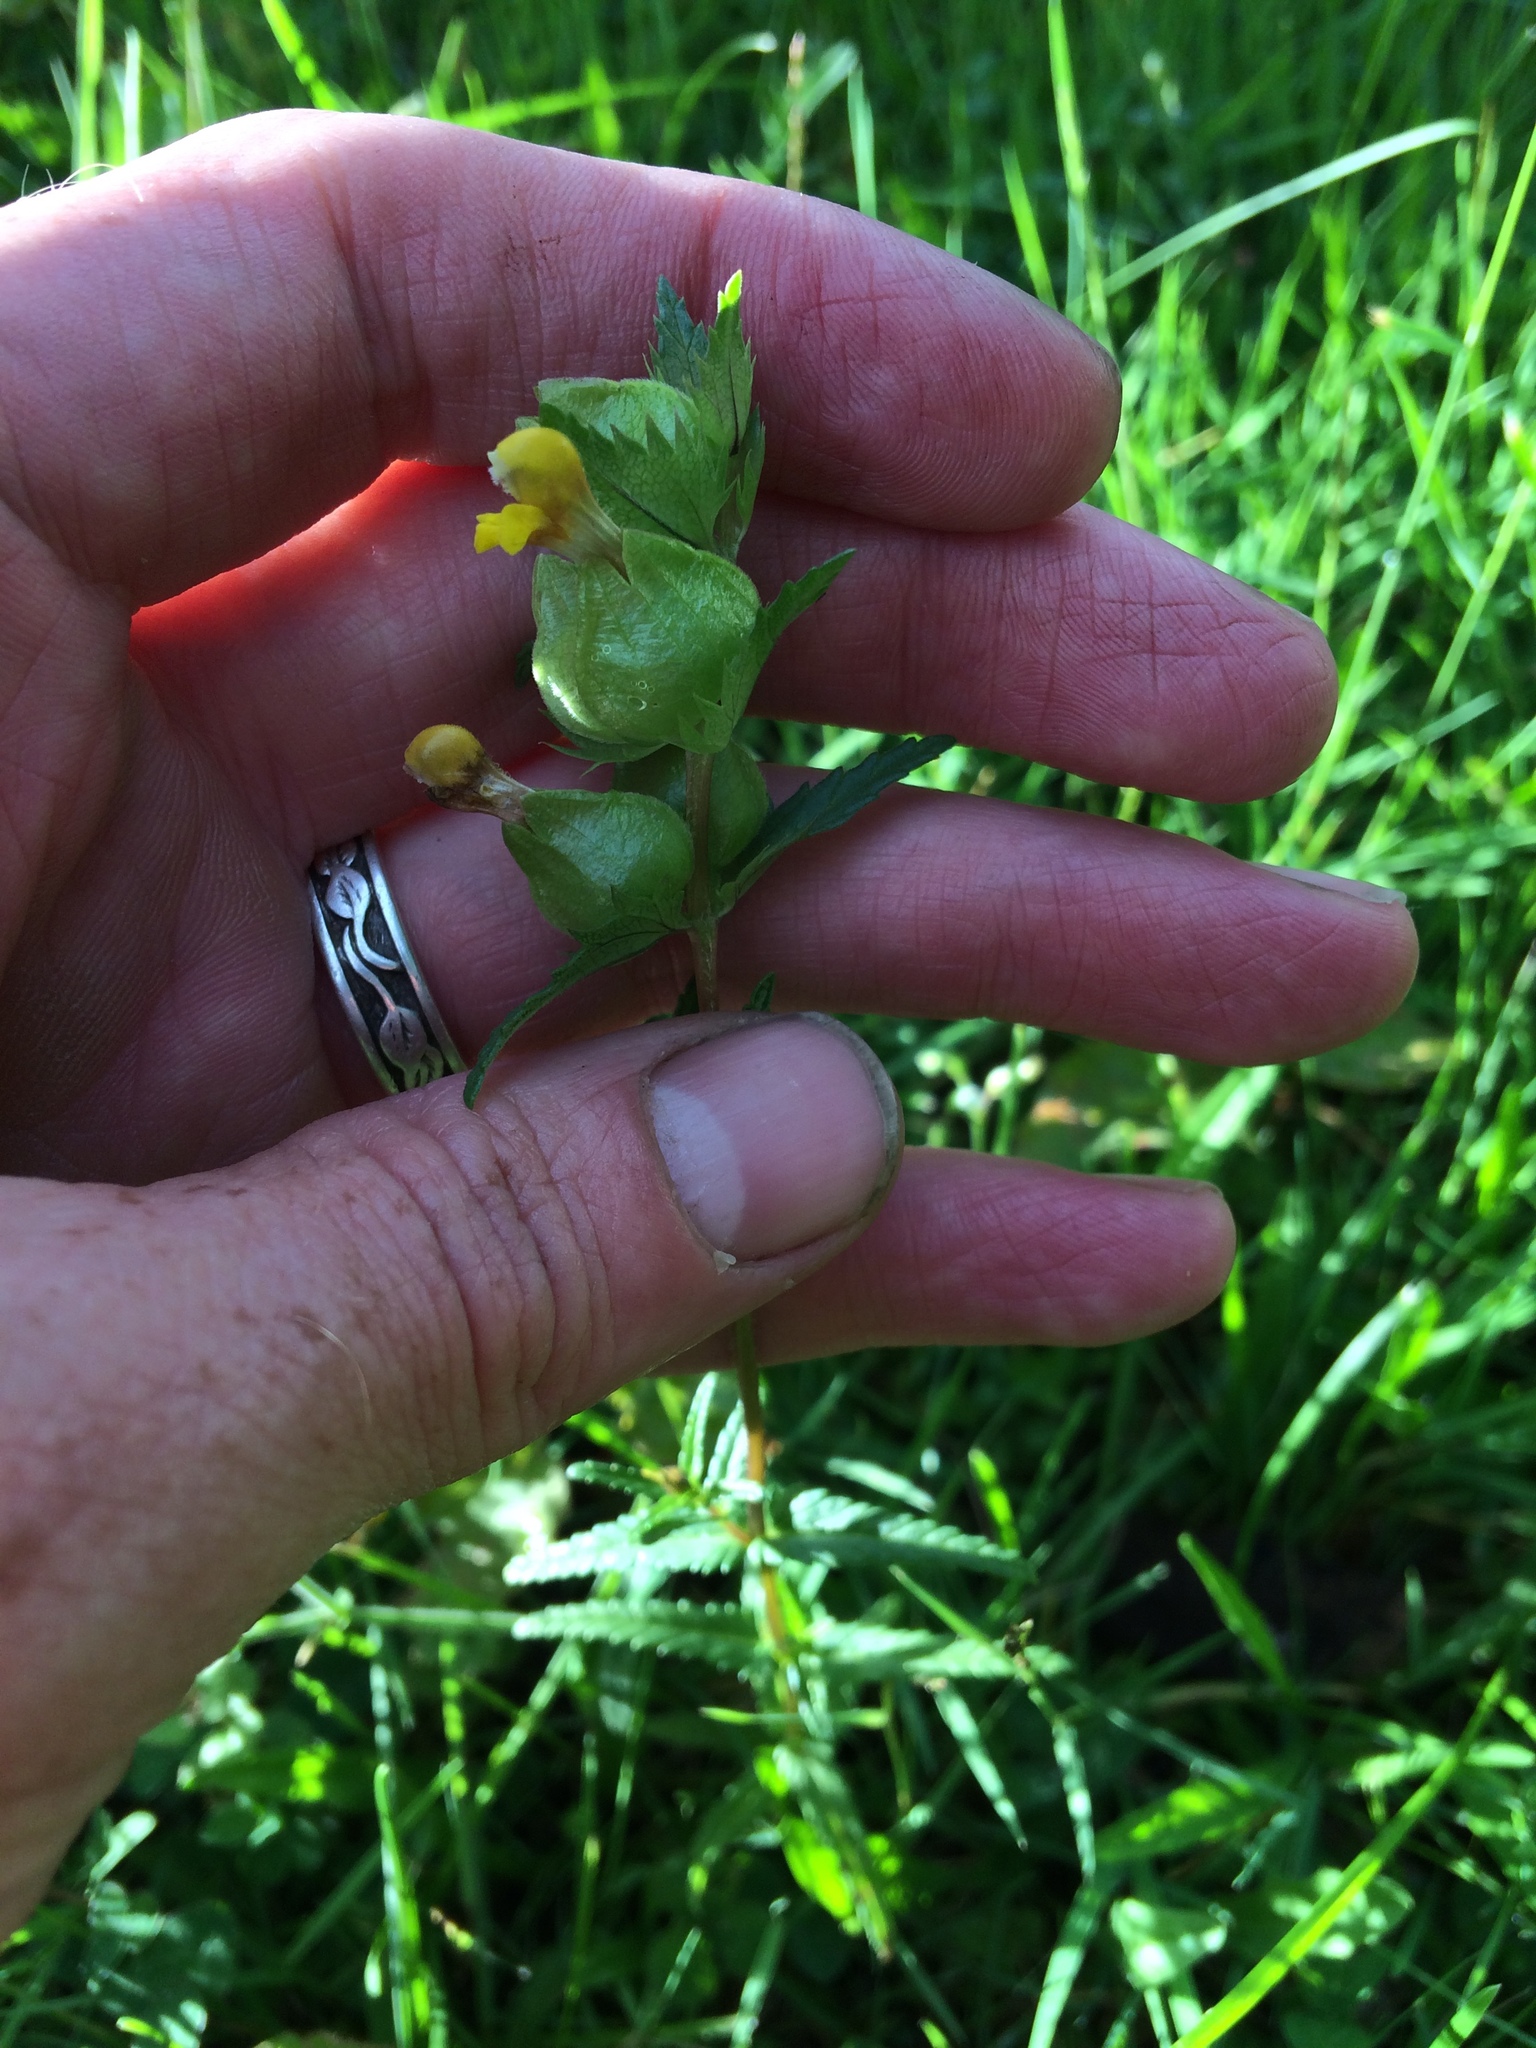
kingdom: Plantae
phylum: Tracheophyta
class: Magnoliopsida
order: Lamiales
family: Orobanchaceae
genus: Rhinanthus
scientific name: Rhinanthus minor
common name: Yellow-rattle
